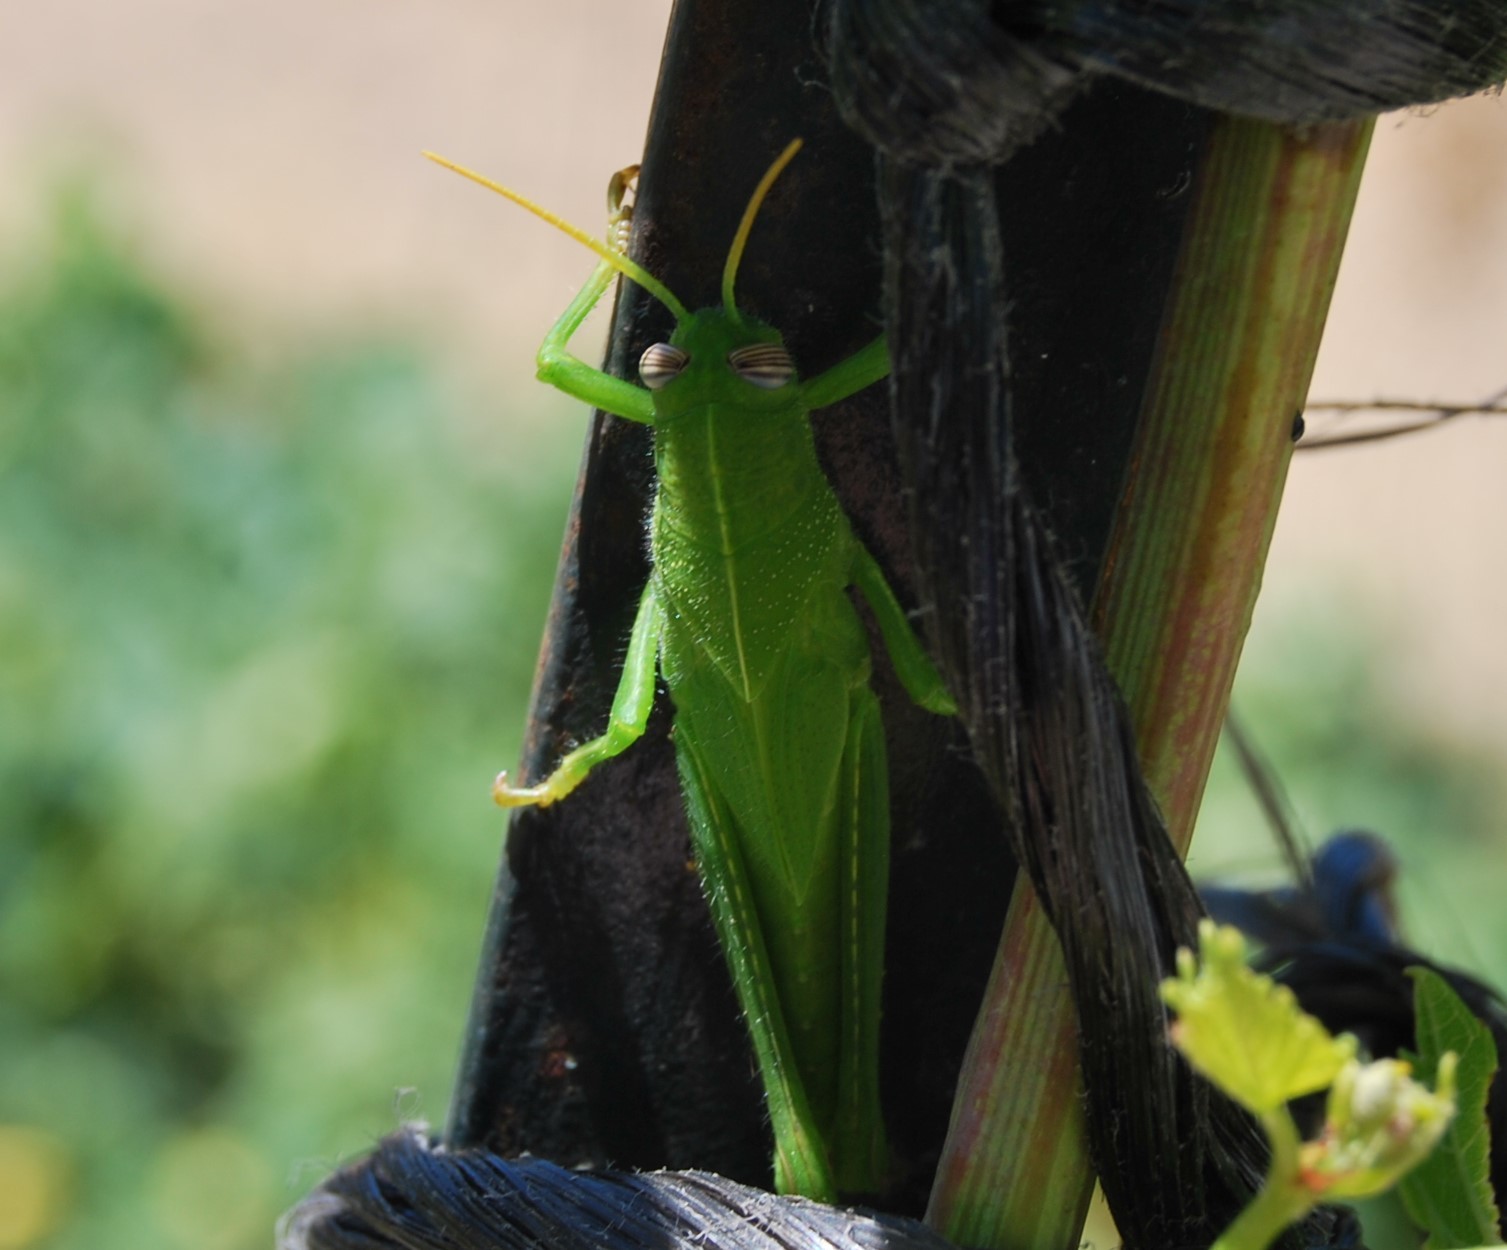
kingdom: Animalia
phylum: Arthropoda
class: Insecta
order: Orthoptera
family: Acrididae
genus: Anacridium
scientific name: Anacridium aegyptium
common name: Egyptian grasshopper
